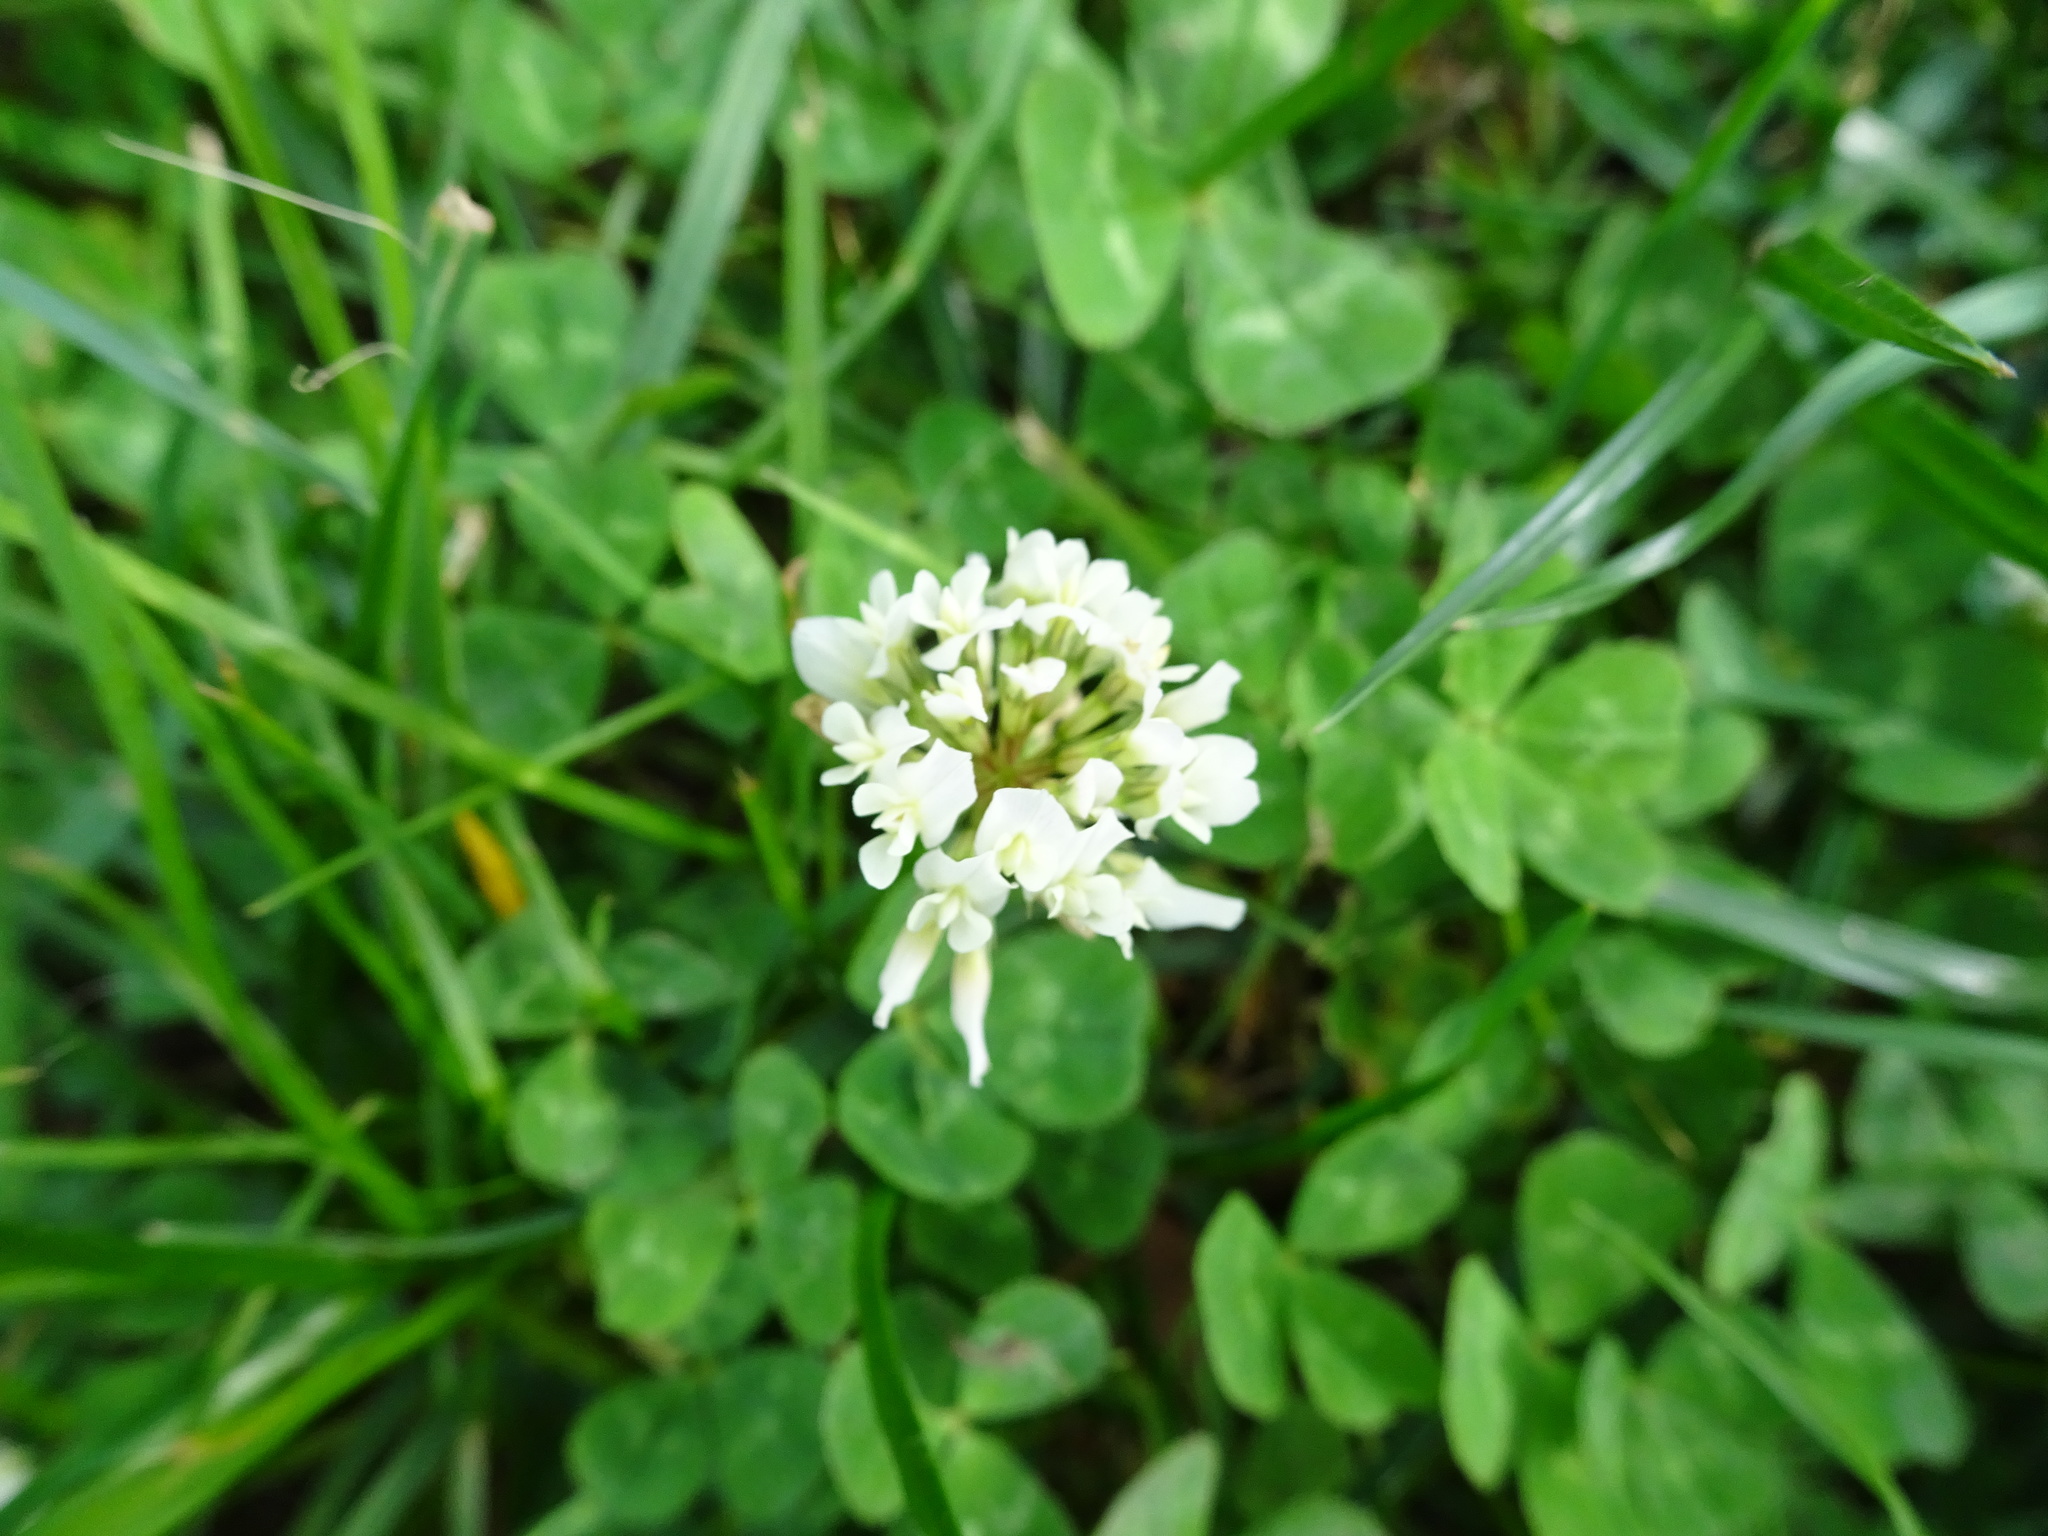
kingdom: Plantae
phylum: Tracheophyta
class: Magnoliopsida
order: Fabales
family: Fabaceae
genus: Trifolium
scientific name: Trifolium repens
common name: White clover
